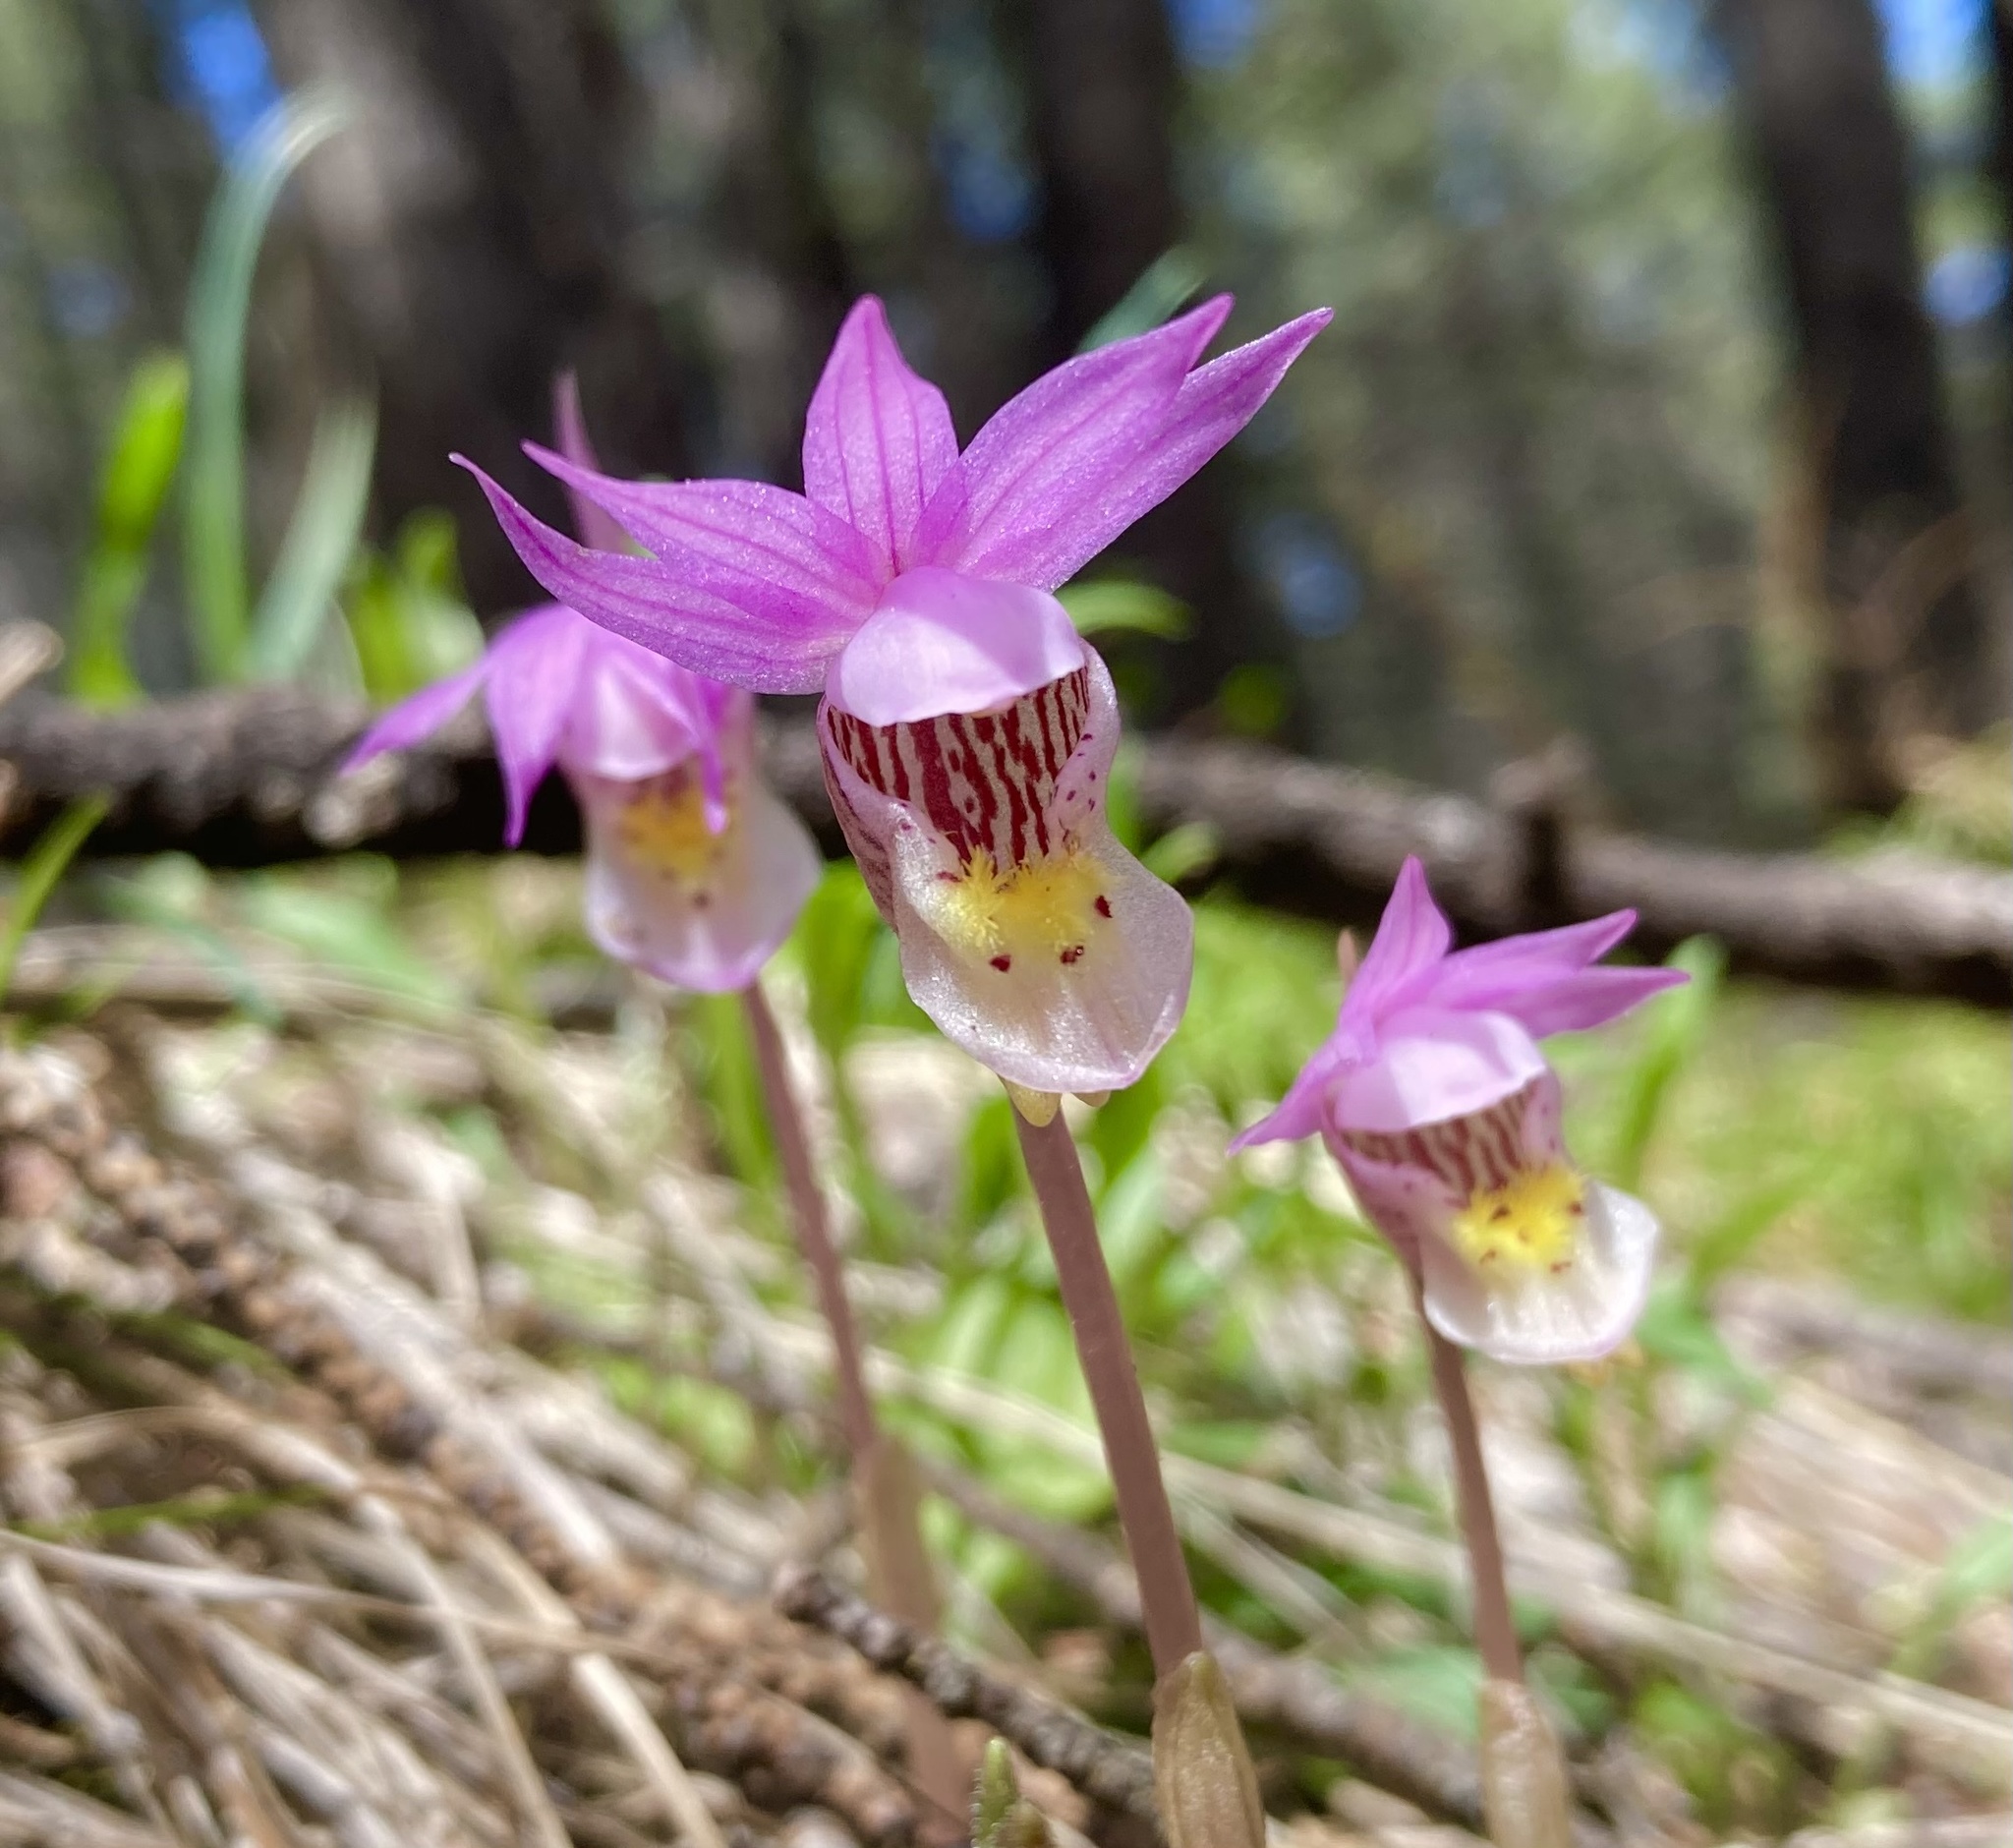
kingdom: Plantae
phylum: Tracheophyta
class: Liliopsida
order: Asparagales
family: Orchidaceae
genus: Calypso
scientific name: Calypso bulbosa
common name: Calypso
